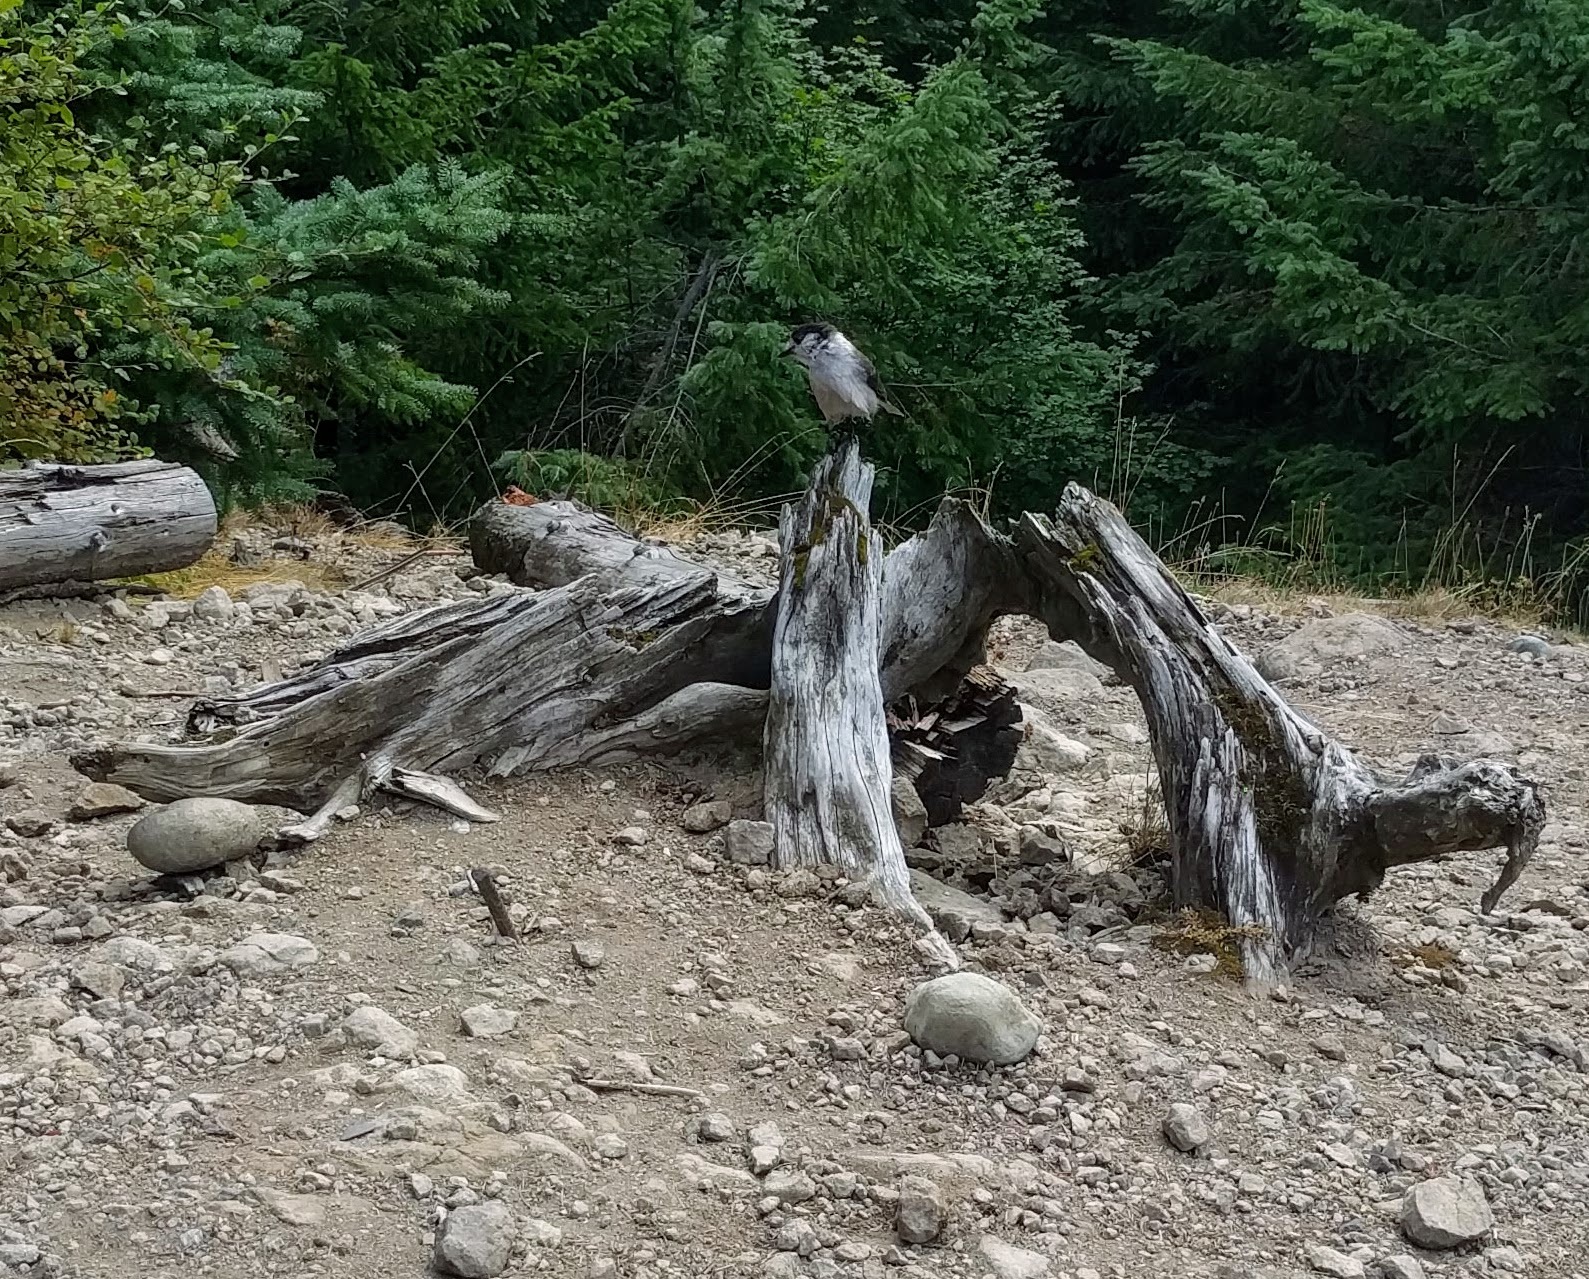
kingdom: Animalia
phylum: Chordata
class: Aves
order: Passeriformes
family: Corvidae
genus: Perisoreus
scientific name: Perisoreus canadensis
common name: Gray jay
